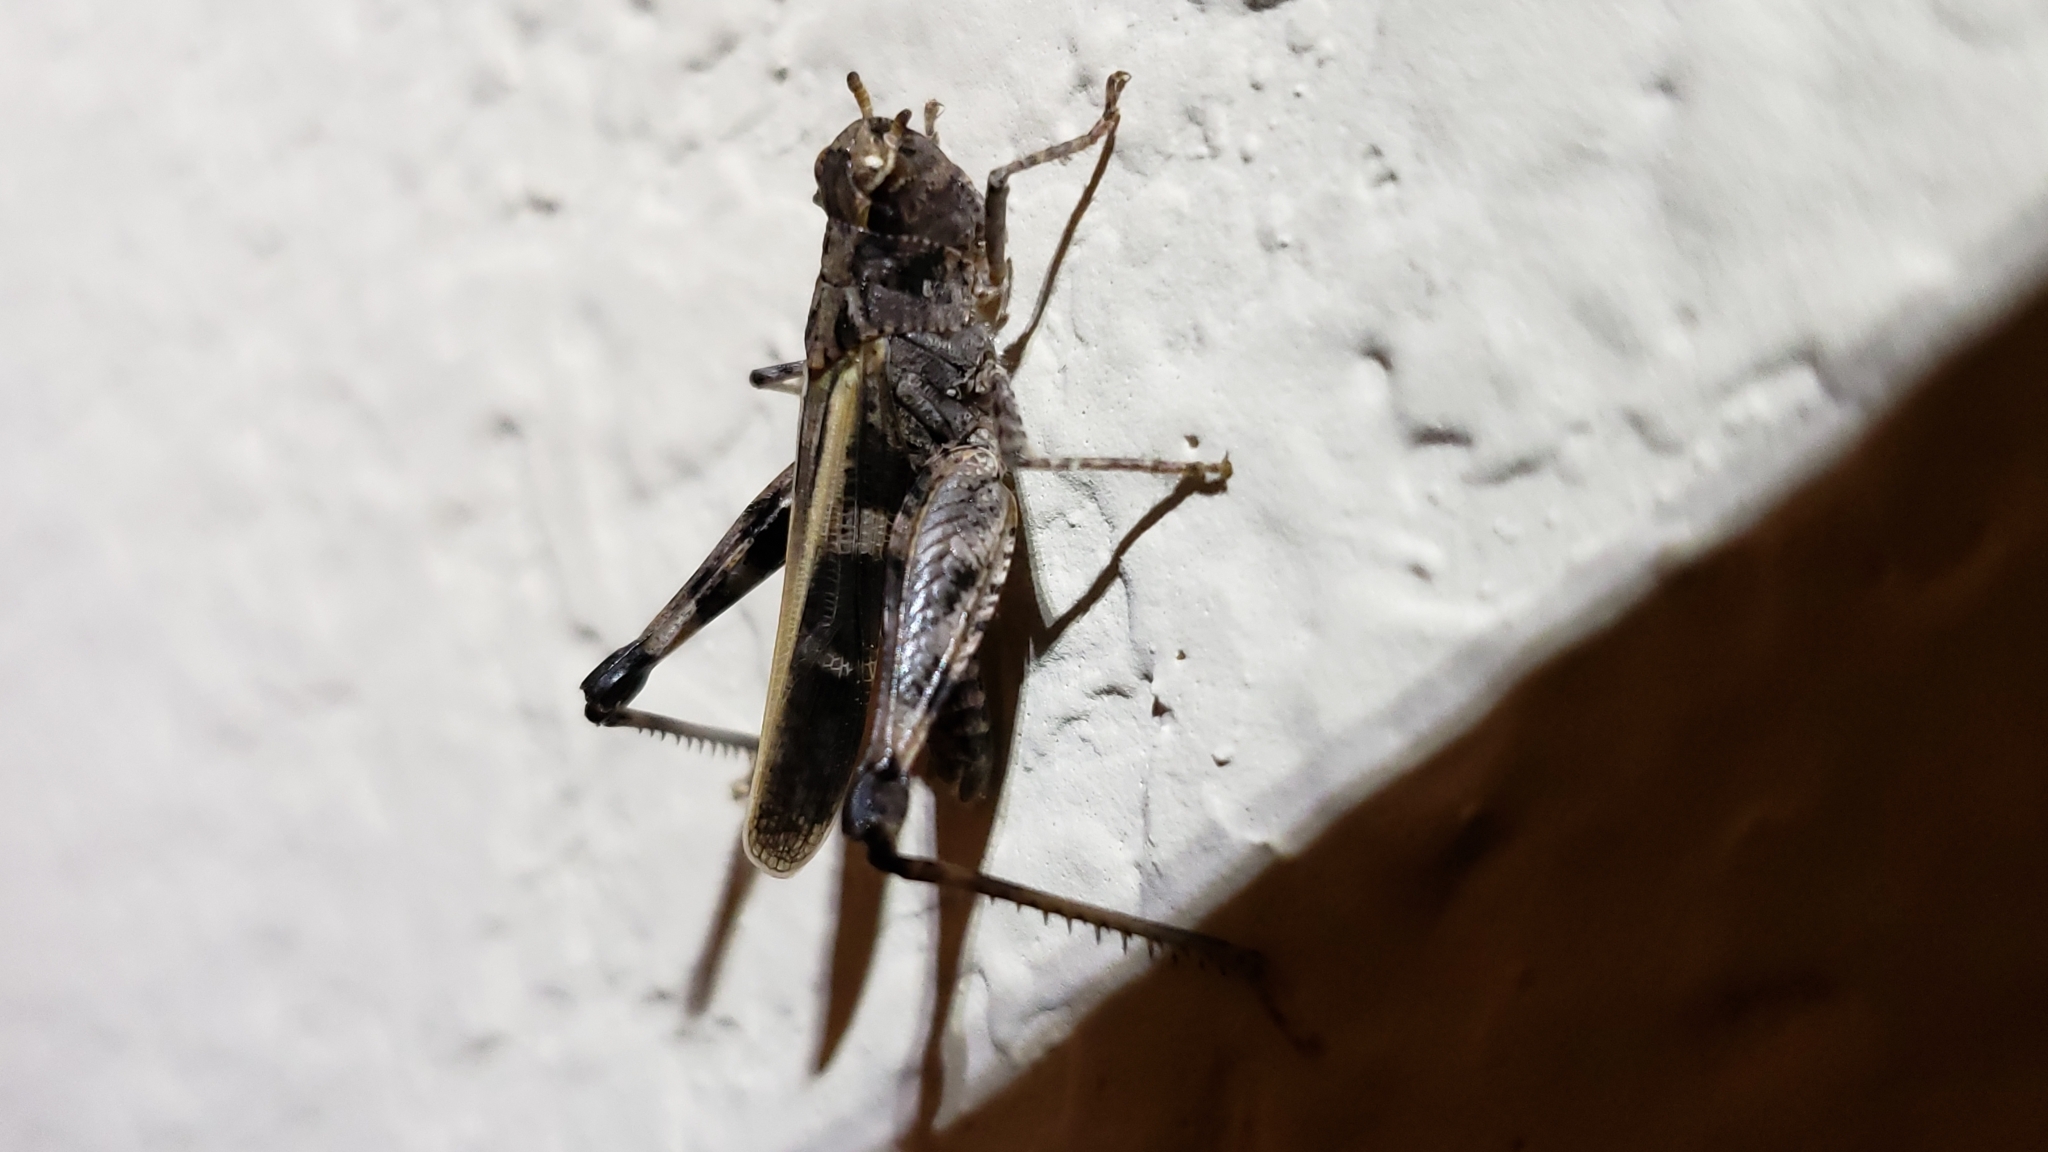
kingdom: Animalia
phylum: Arthropoda
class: Insecta
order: Orthoptera
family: Acrididae
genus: Encoptolophus
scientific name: Encoptolophus costalis
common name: Dusky grasshopper
